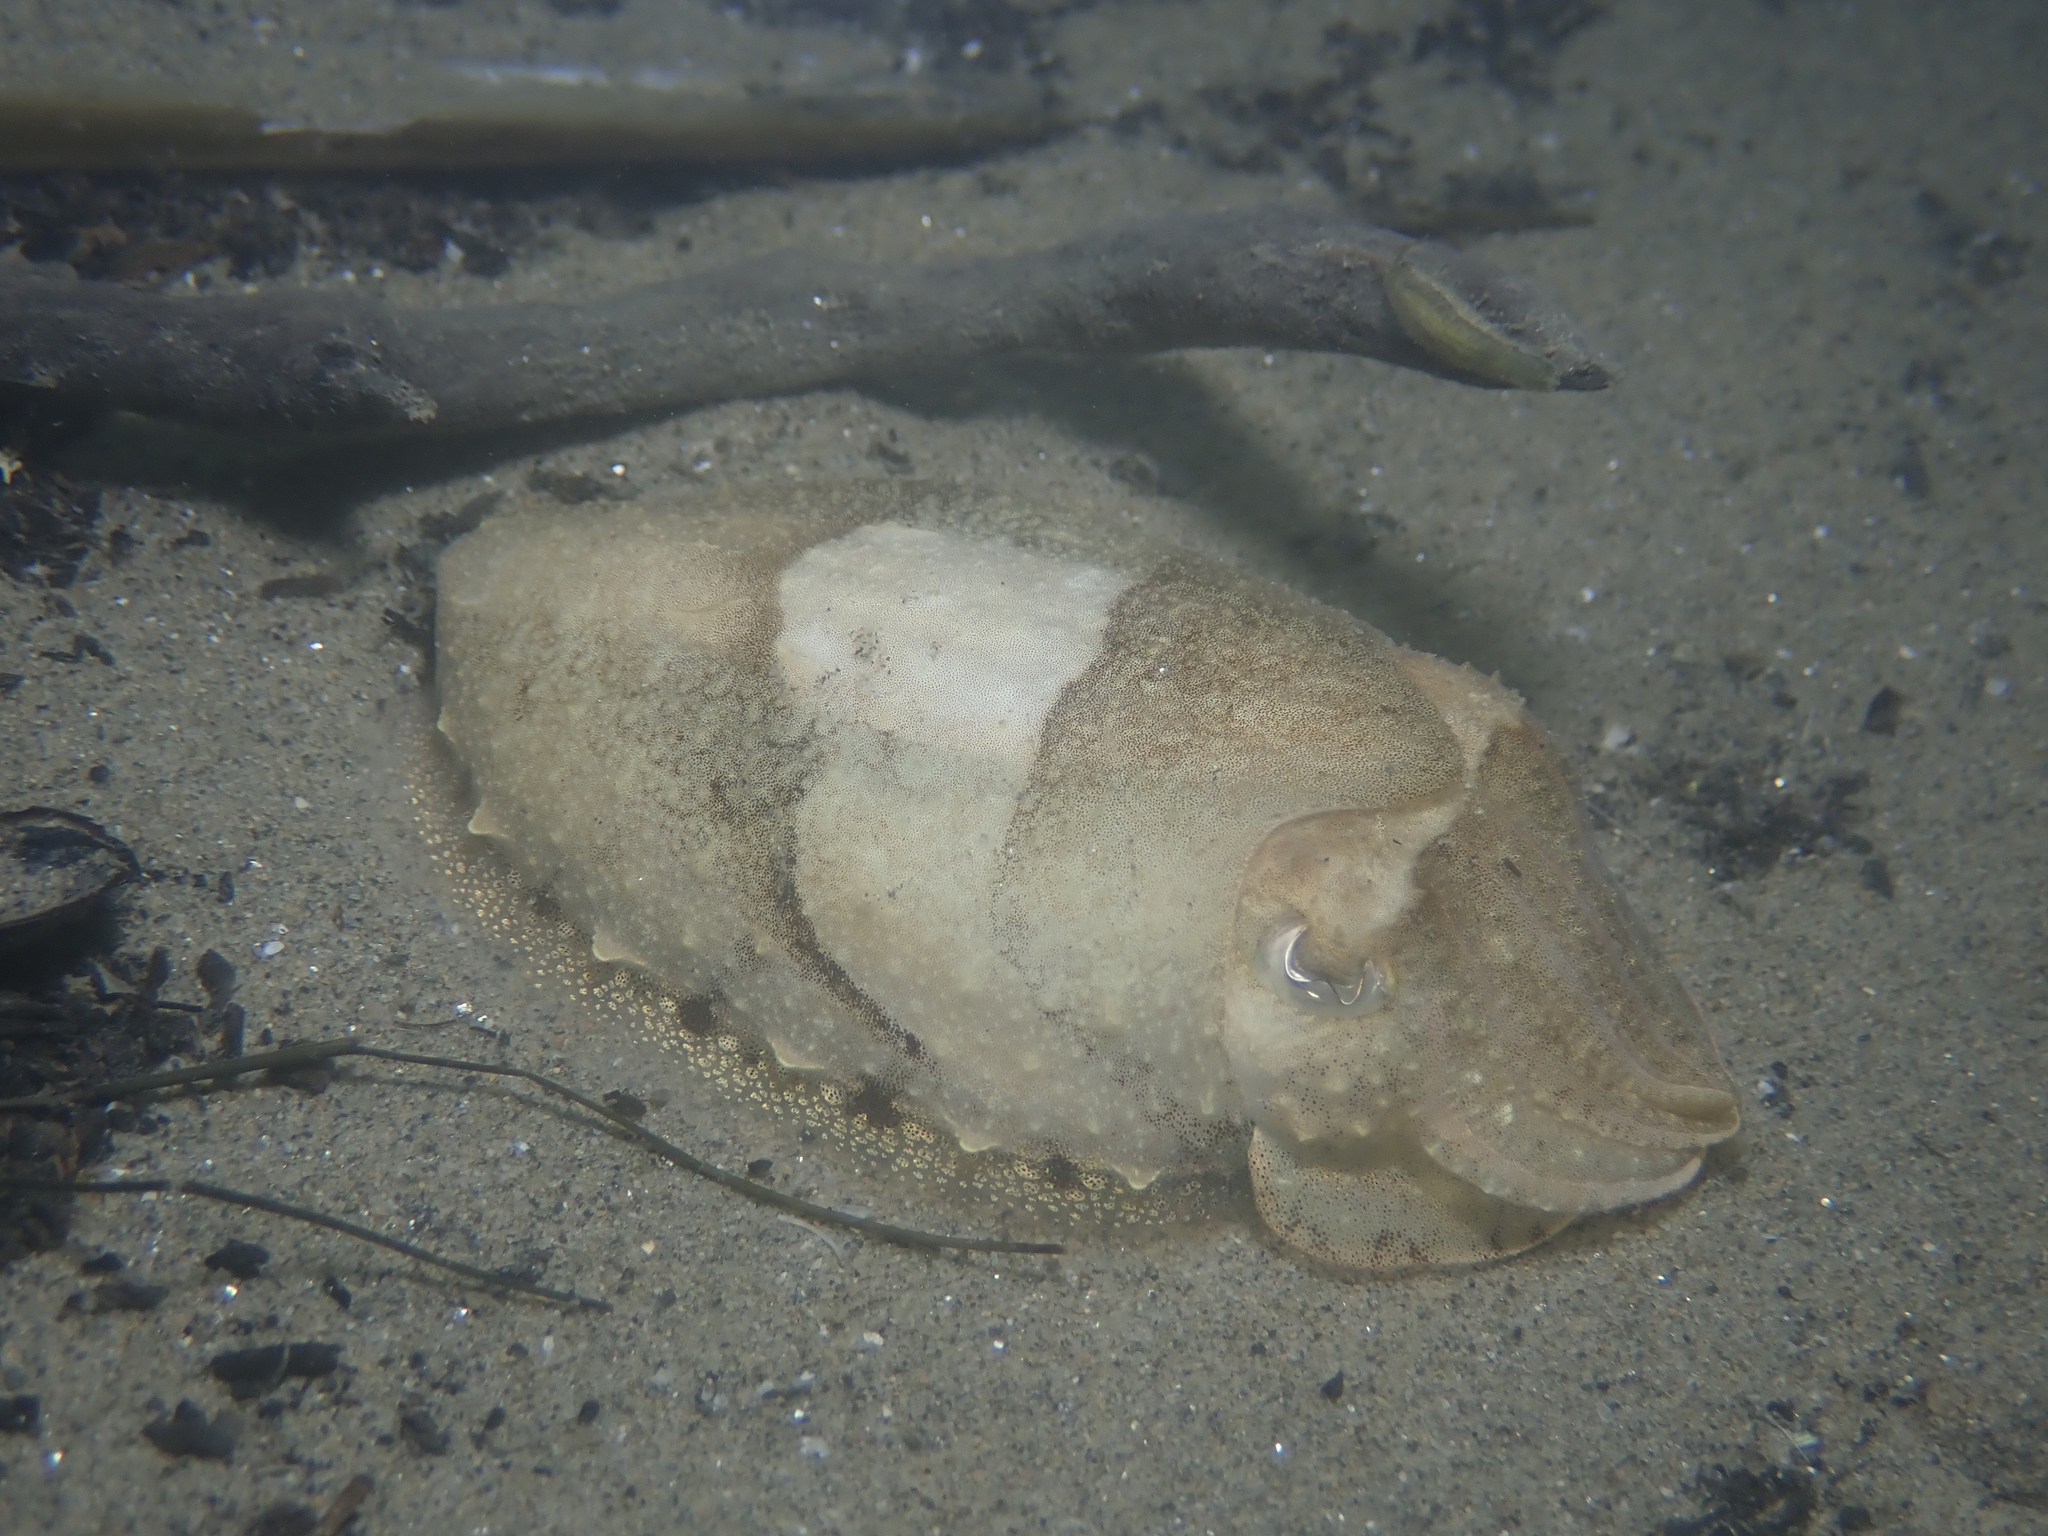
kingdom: Animalia
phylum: Mollusca
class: Cephalopoda
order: Sepiida
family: Sepiidae
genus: Sepia
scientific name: Sepia officinalis
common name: Common cuttlefish
